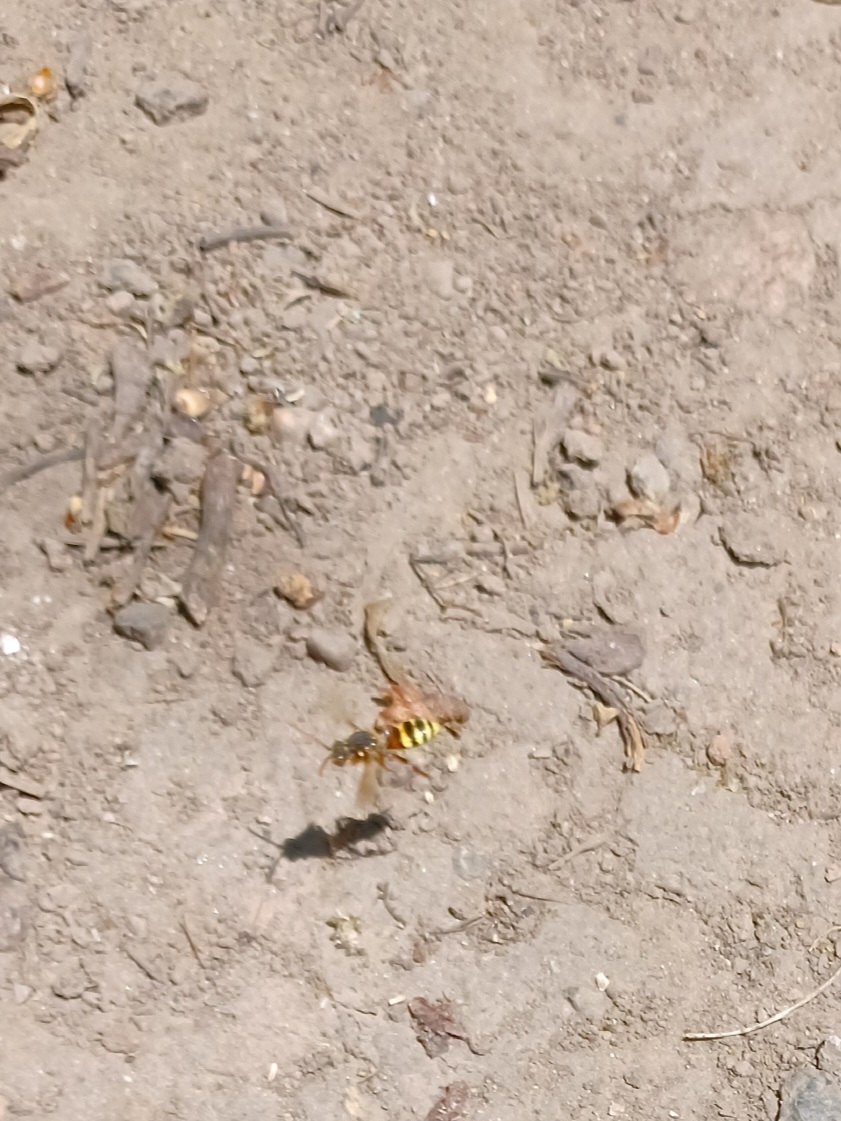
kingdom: Animalia
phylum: Arthropoda
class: Insecta
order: Hymenoptera
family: Apidae
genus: Nomada
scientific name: Nomada lathburiana
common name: Lathbury's nomad bee
